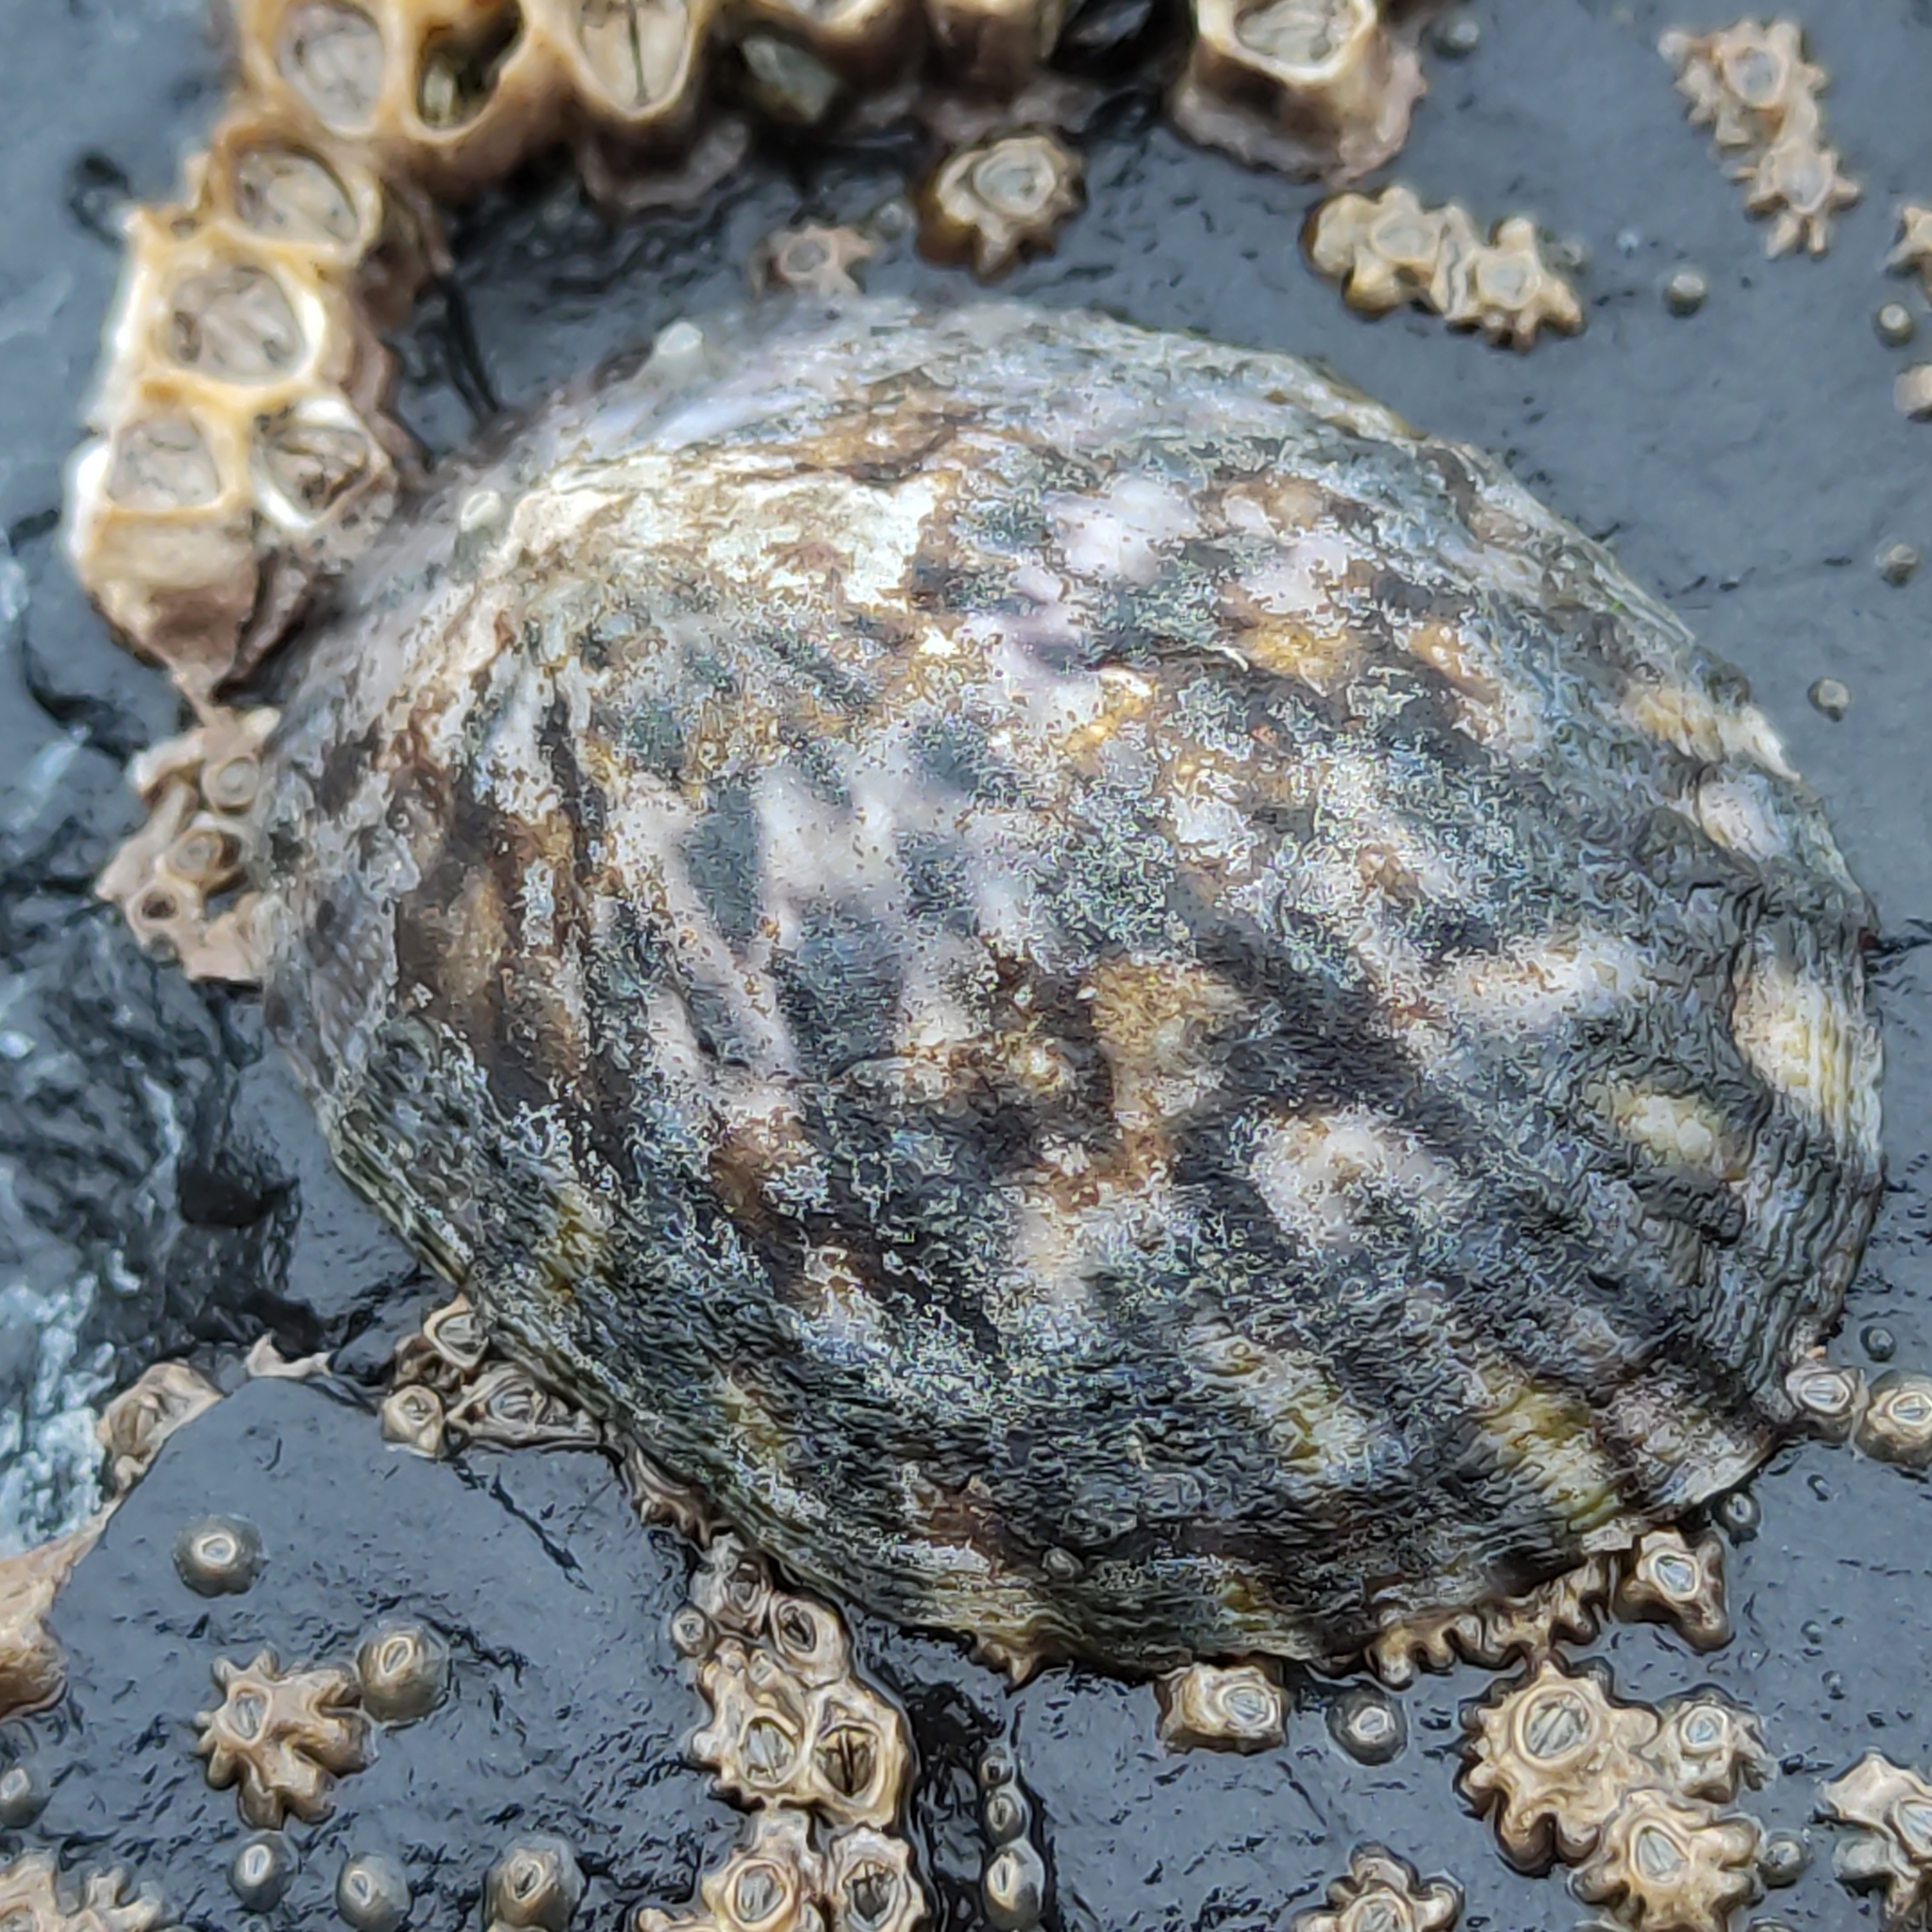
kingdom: Animalia
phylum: Mollusca
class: Gastropoda
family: Nacellidae
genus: Cellana
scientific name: Cellana radians
